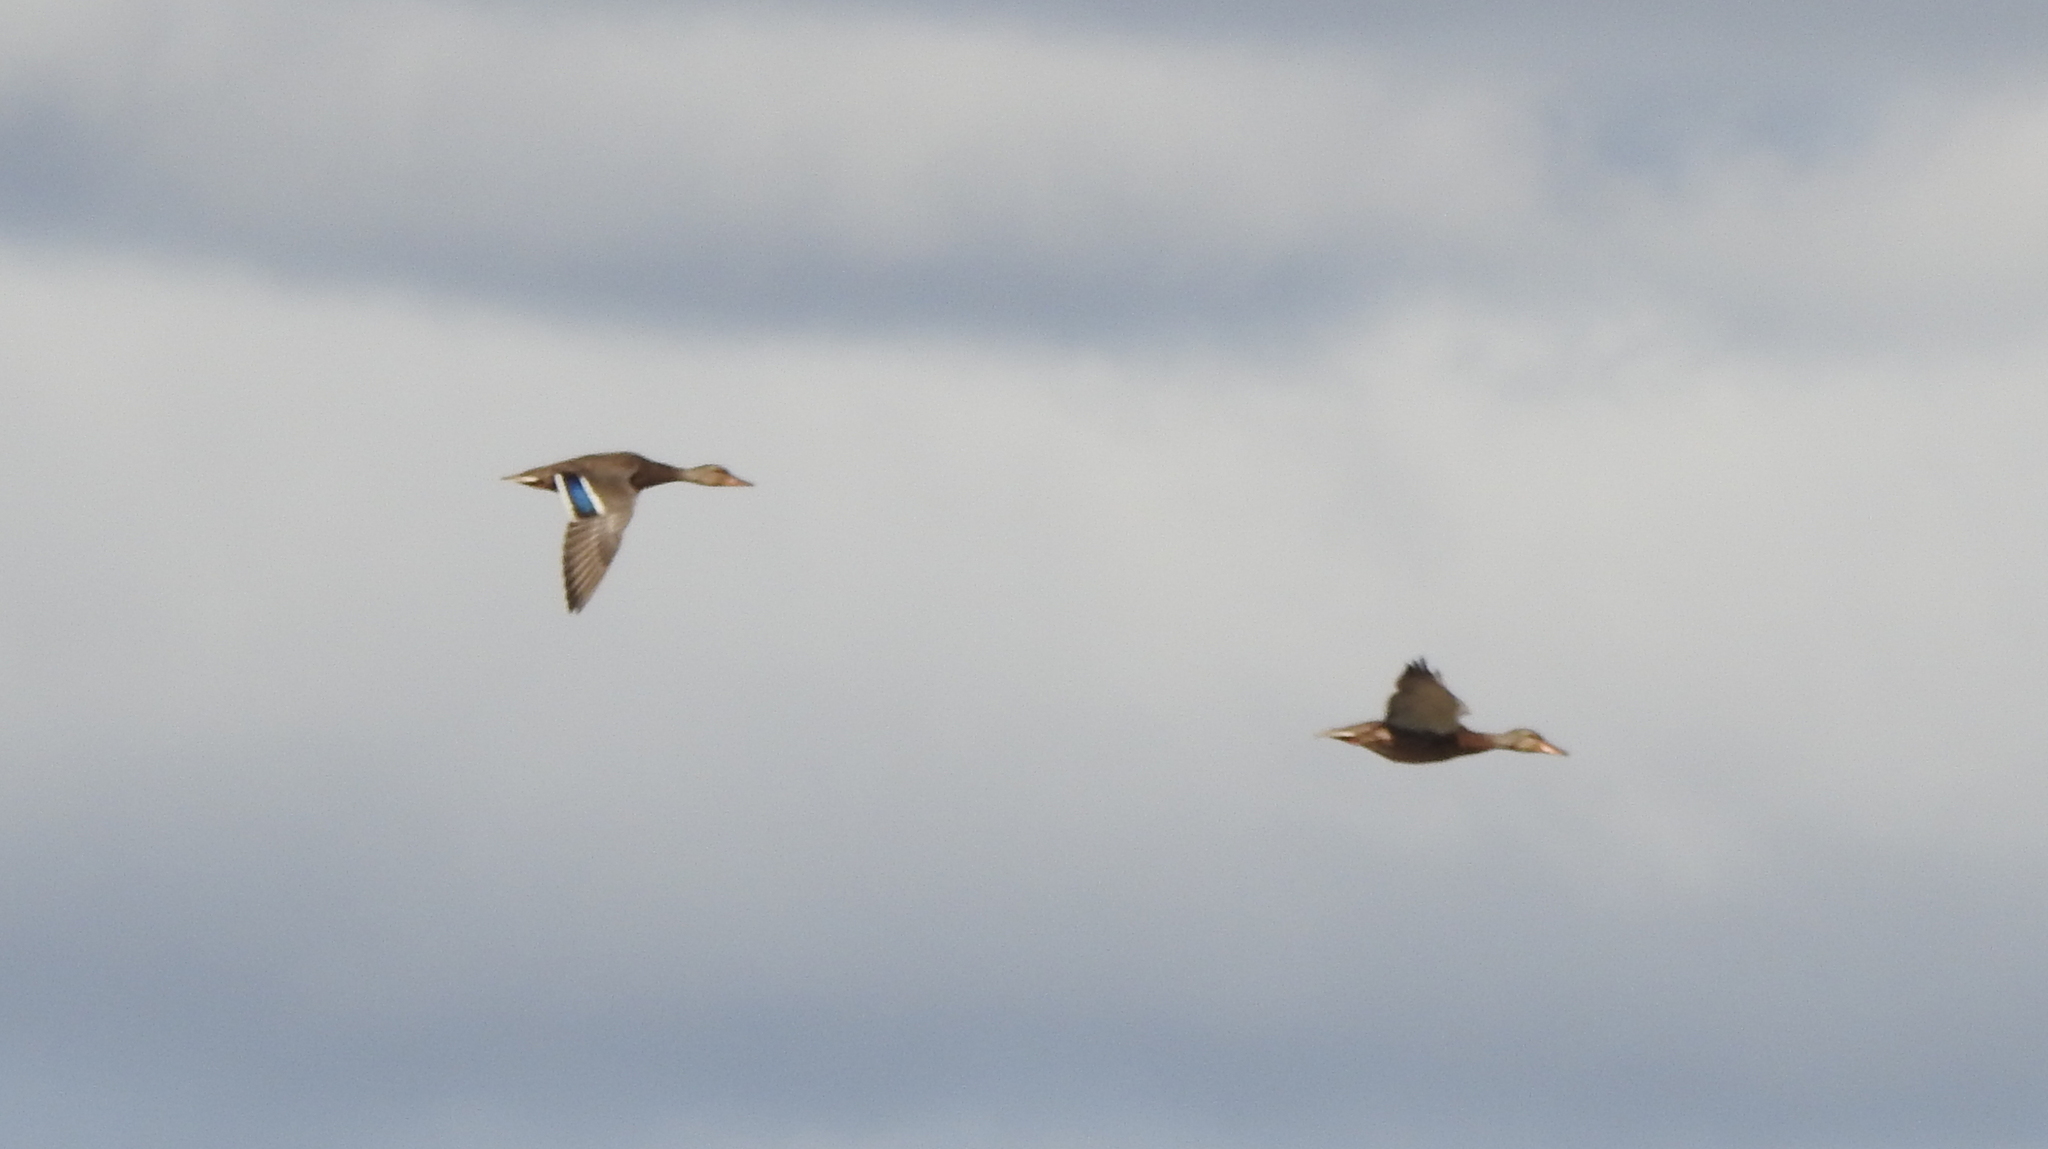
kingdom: Animalia
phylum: Chordata
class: Aves
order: Anseriformes
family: Anatidae
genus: Spatula
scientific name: Spatula clypeata
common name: Northern shoveler
